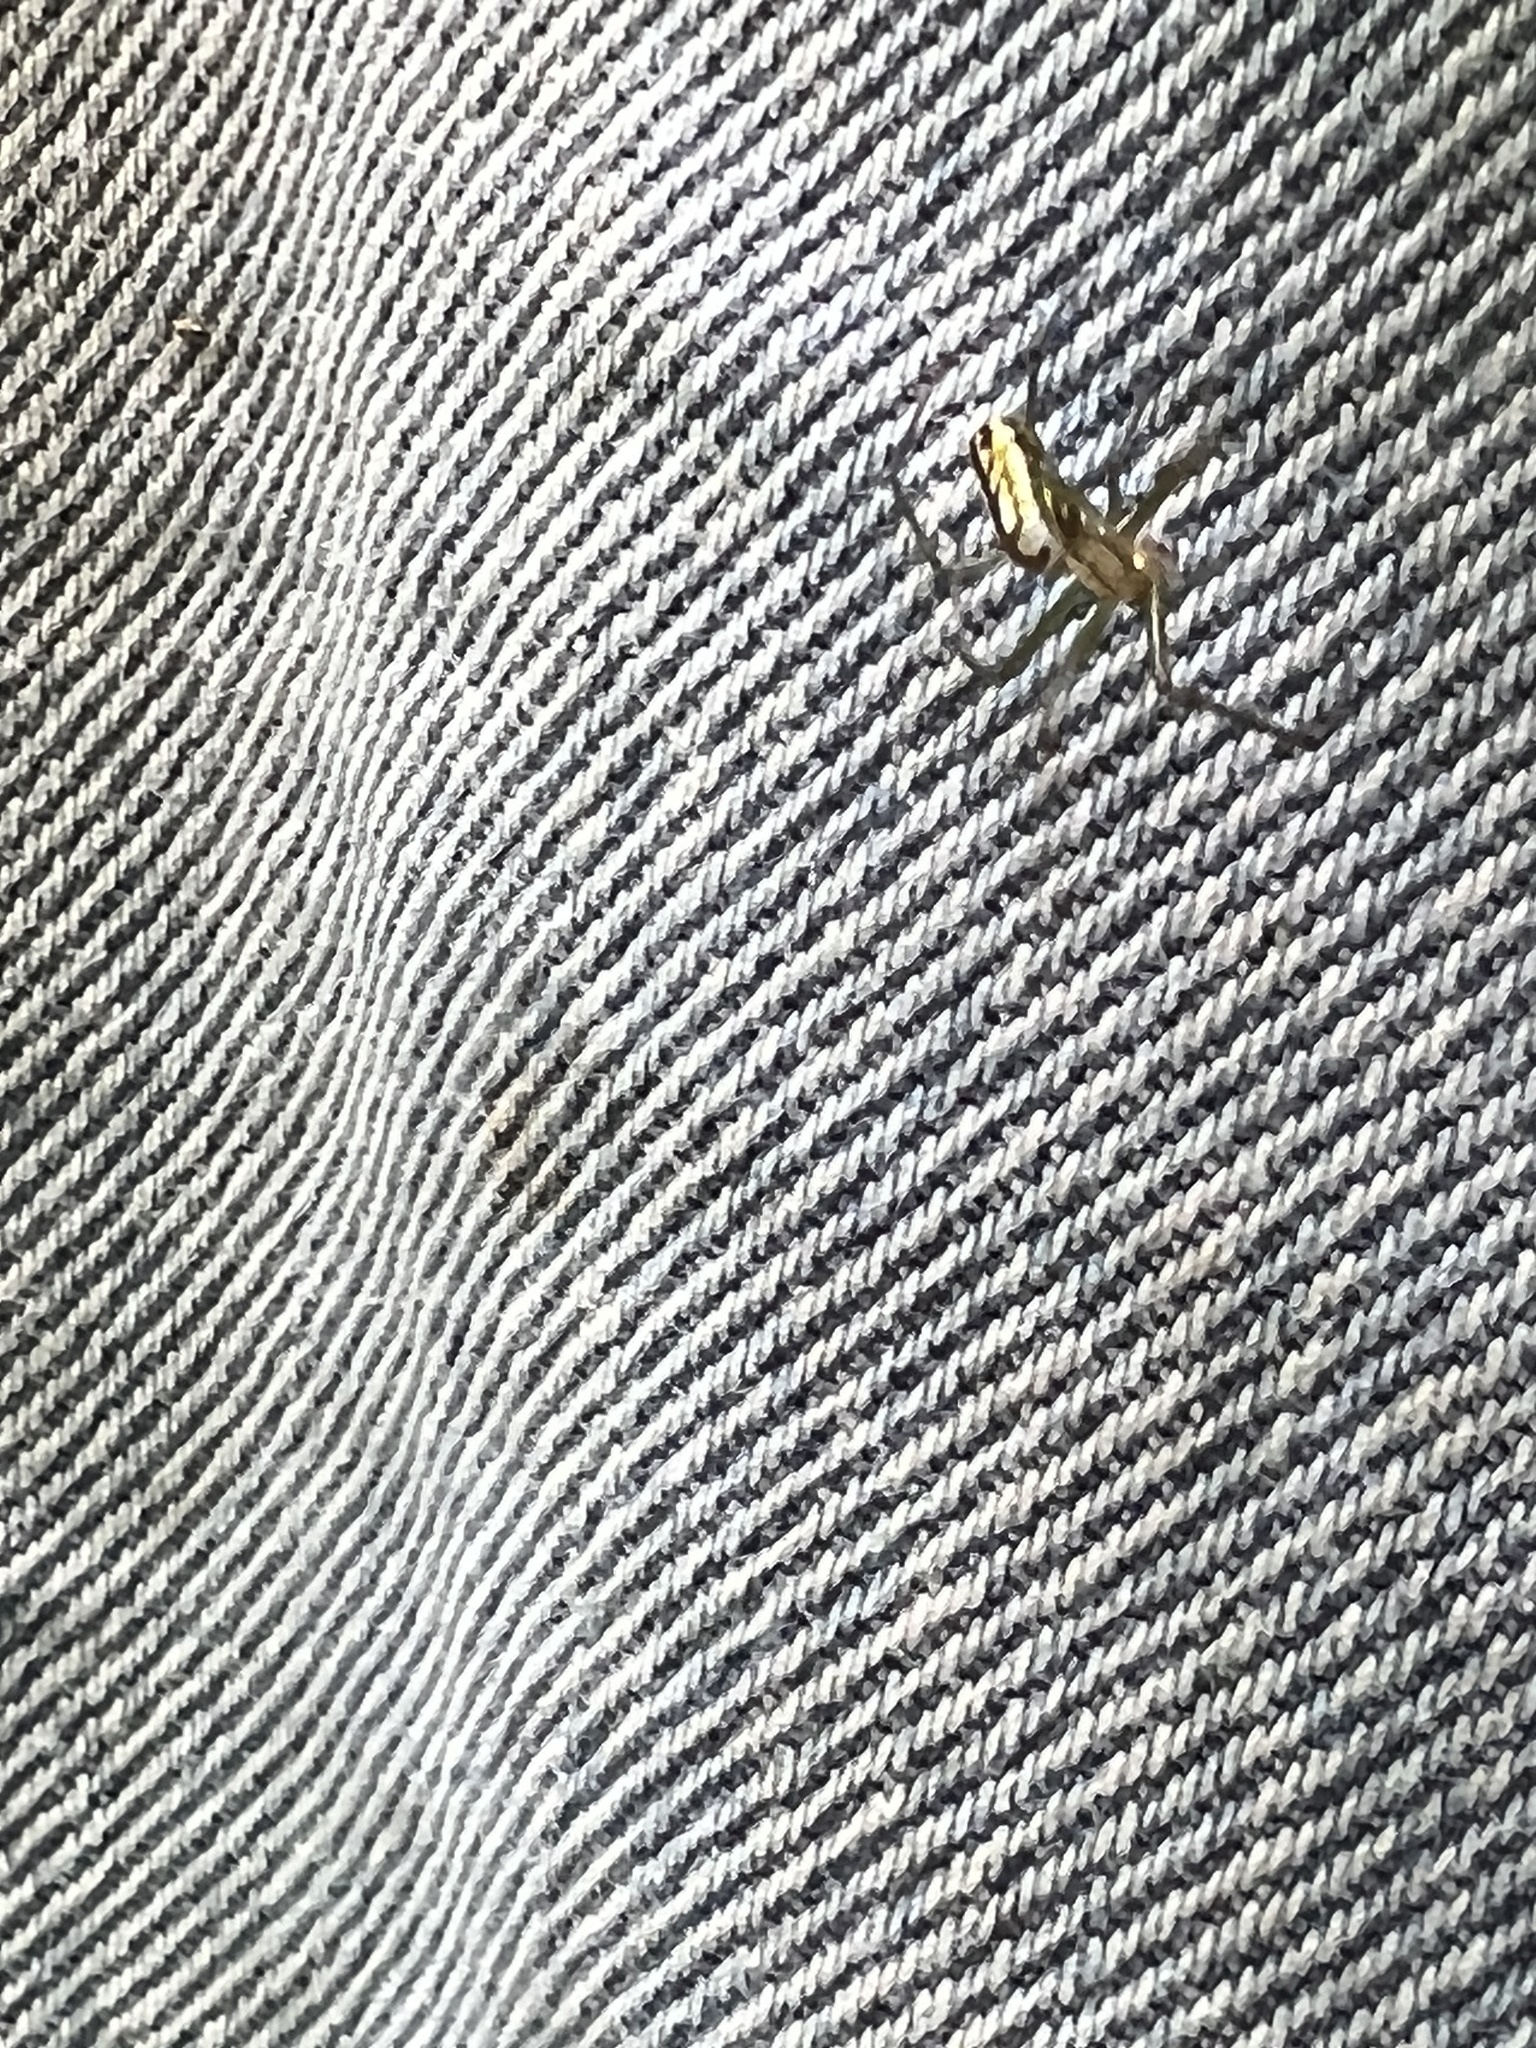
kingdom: Animalia
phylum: Arthropoda
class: Arachnida
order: Araneae
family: Tetragnathidae
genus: Leucauge
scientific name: Leucauge venusta
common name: Longjawed orb weavers
